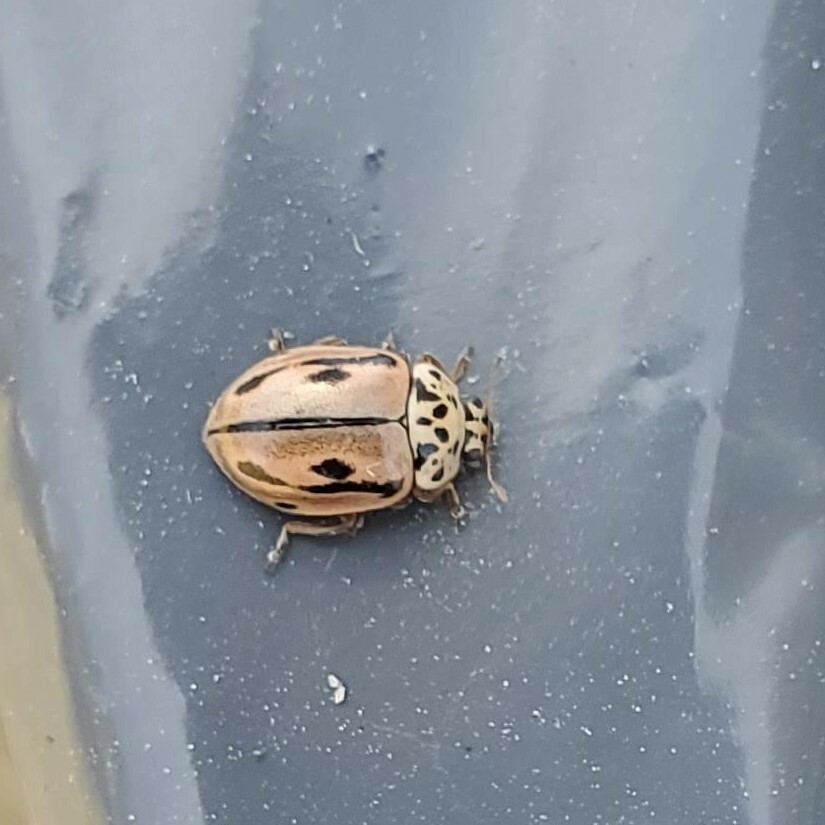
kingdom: Animalia
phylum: Arthropoda
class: Insecta
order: Coleoptera
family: Coccinellidae
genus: Mulsantina
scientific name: Mulsantina hudsonica
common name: Hudsonian ladybird
